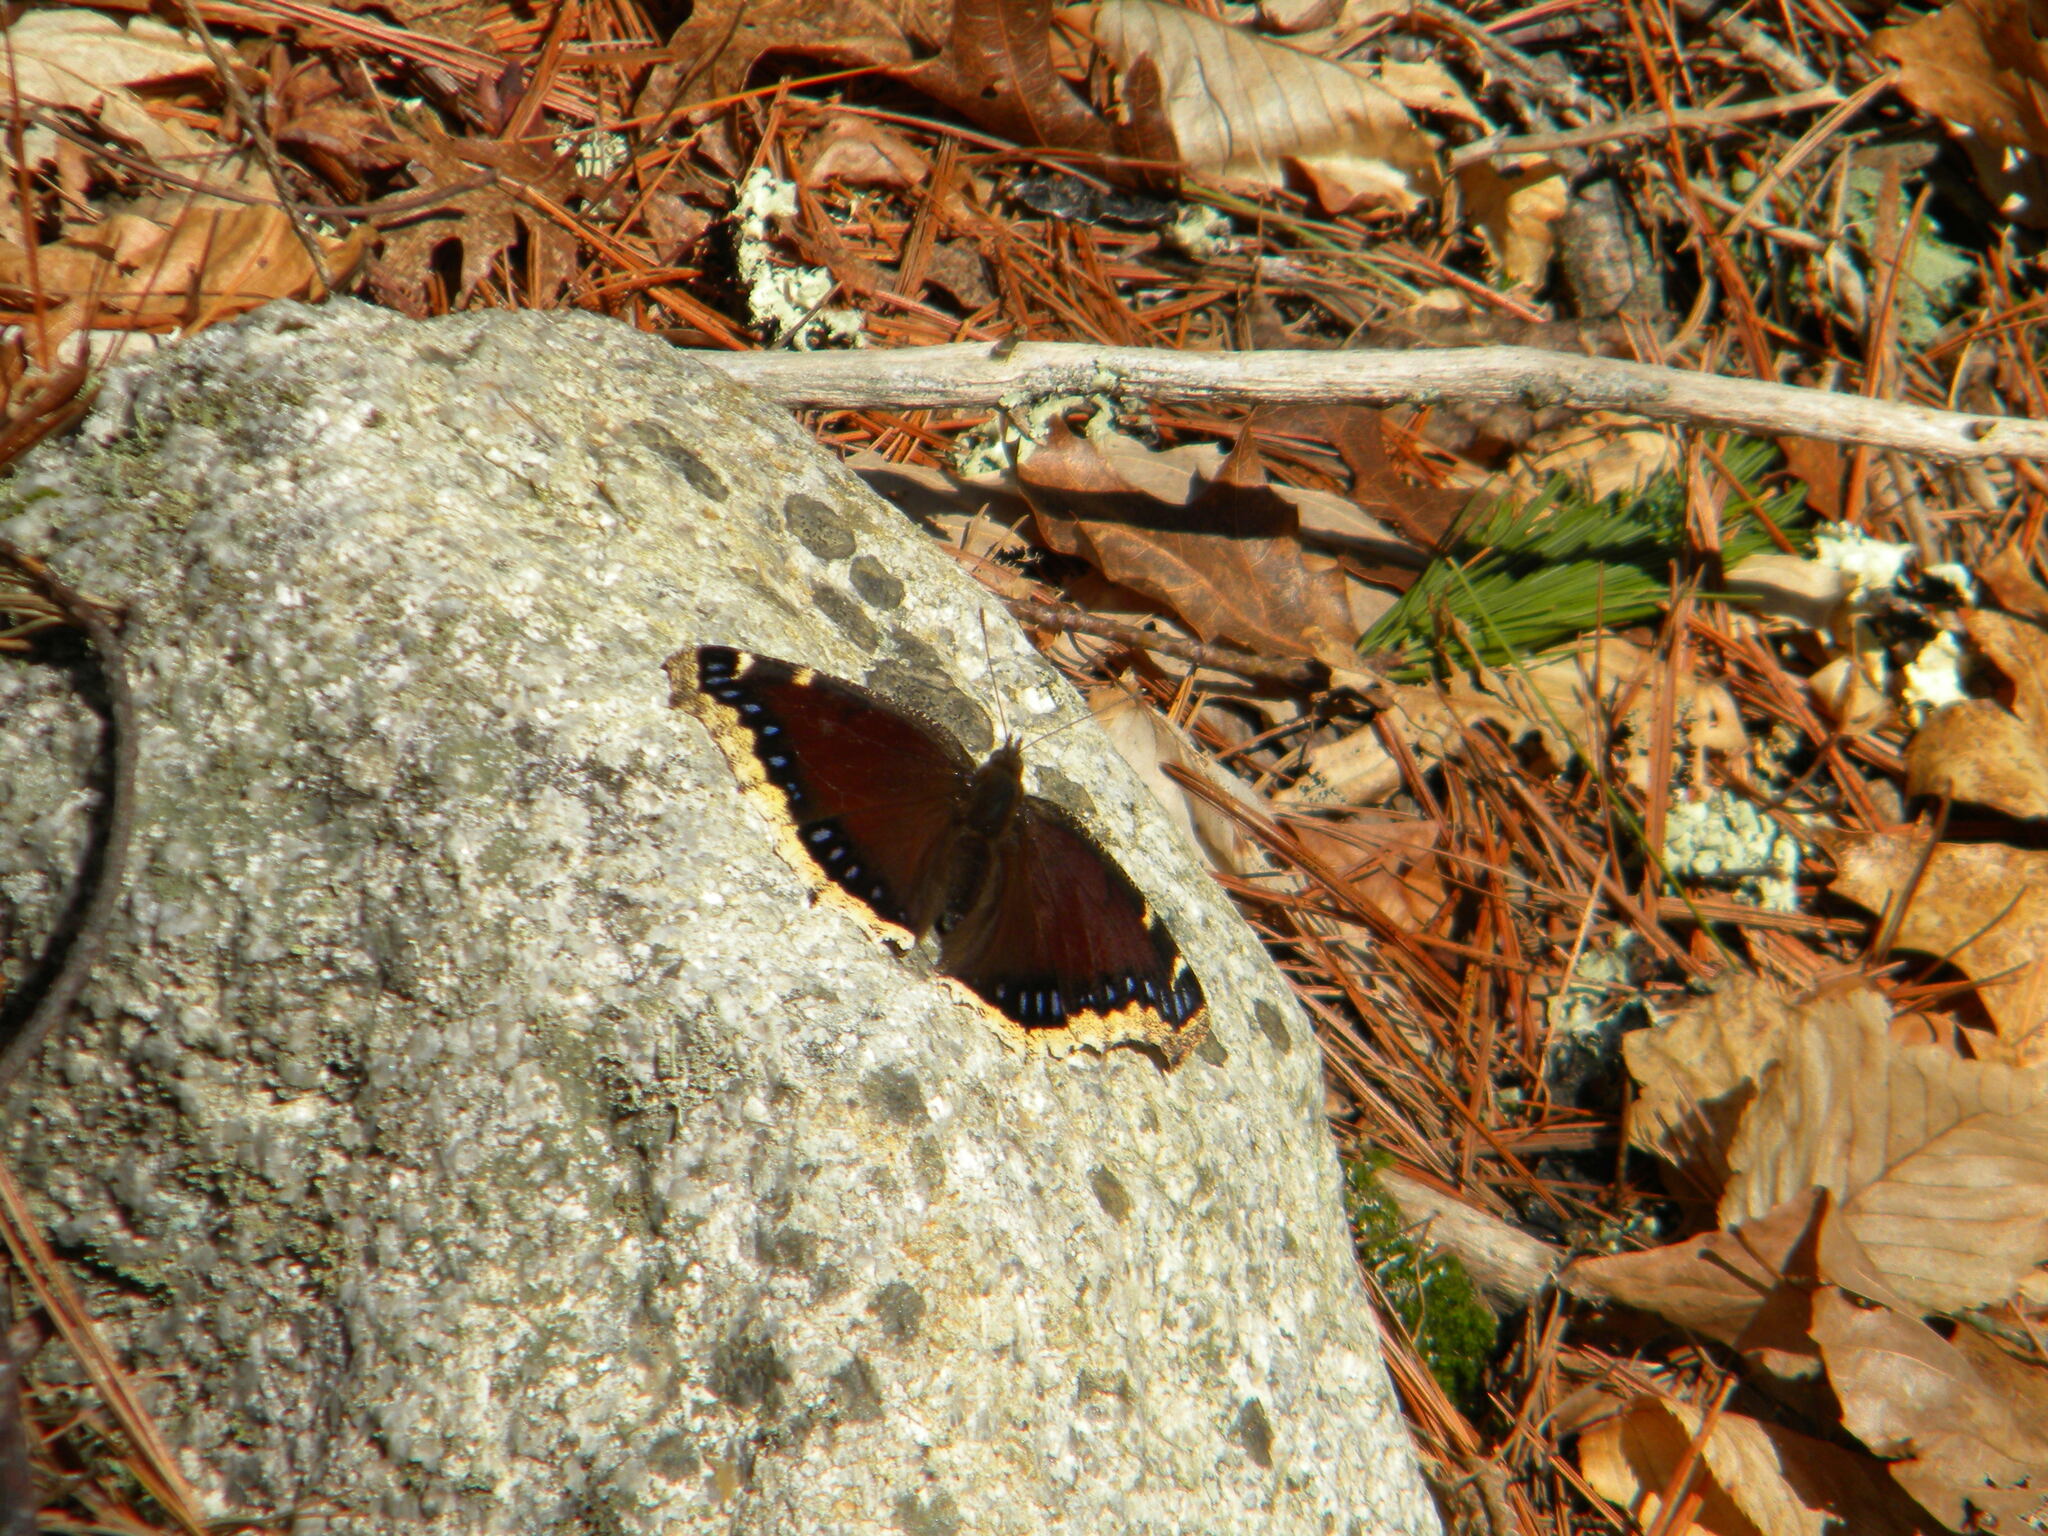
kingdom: Animalia
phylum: Arthropoda
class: Insecta
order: Lepidoptera
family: Nymphalidae
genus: Nymphalis
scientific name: Nymphalis antiopa
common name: Camberwell beauty
